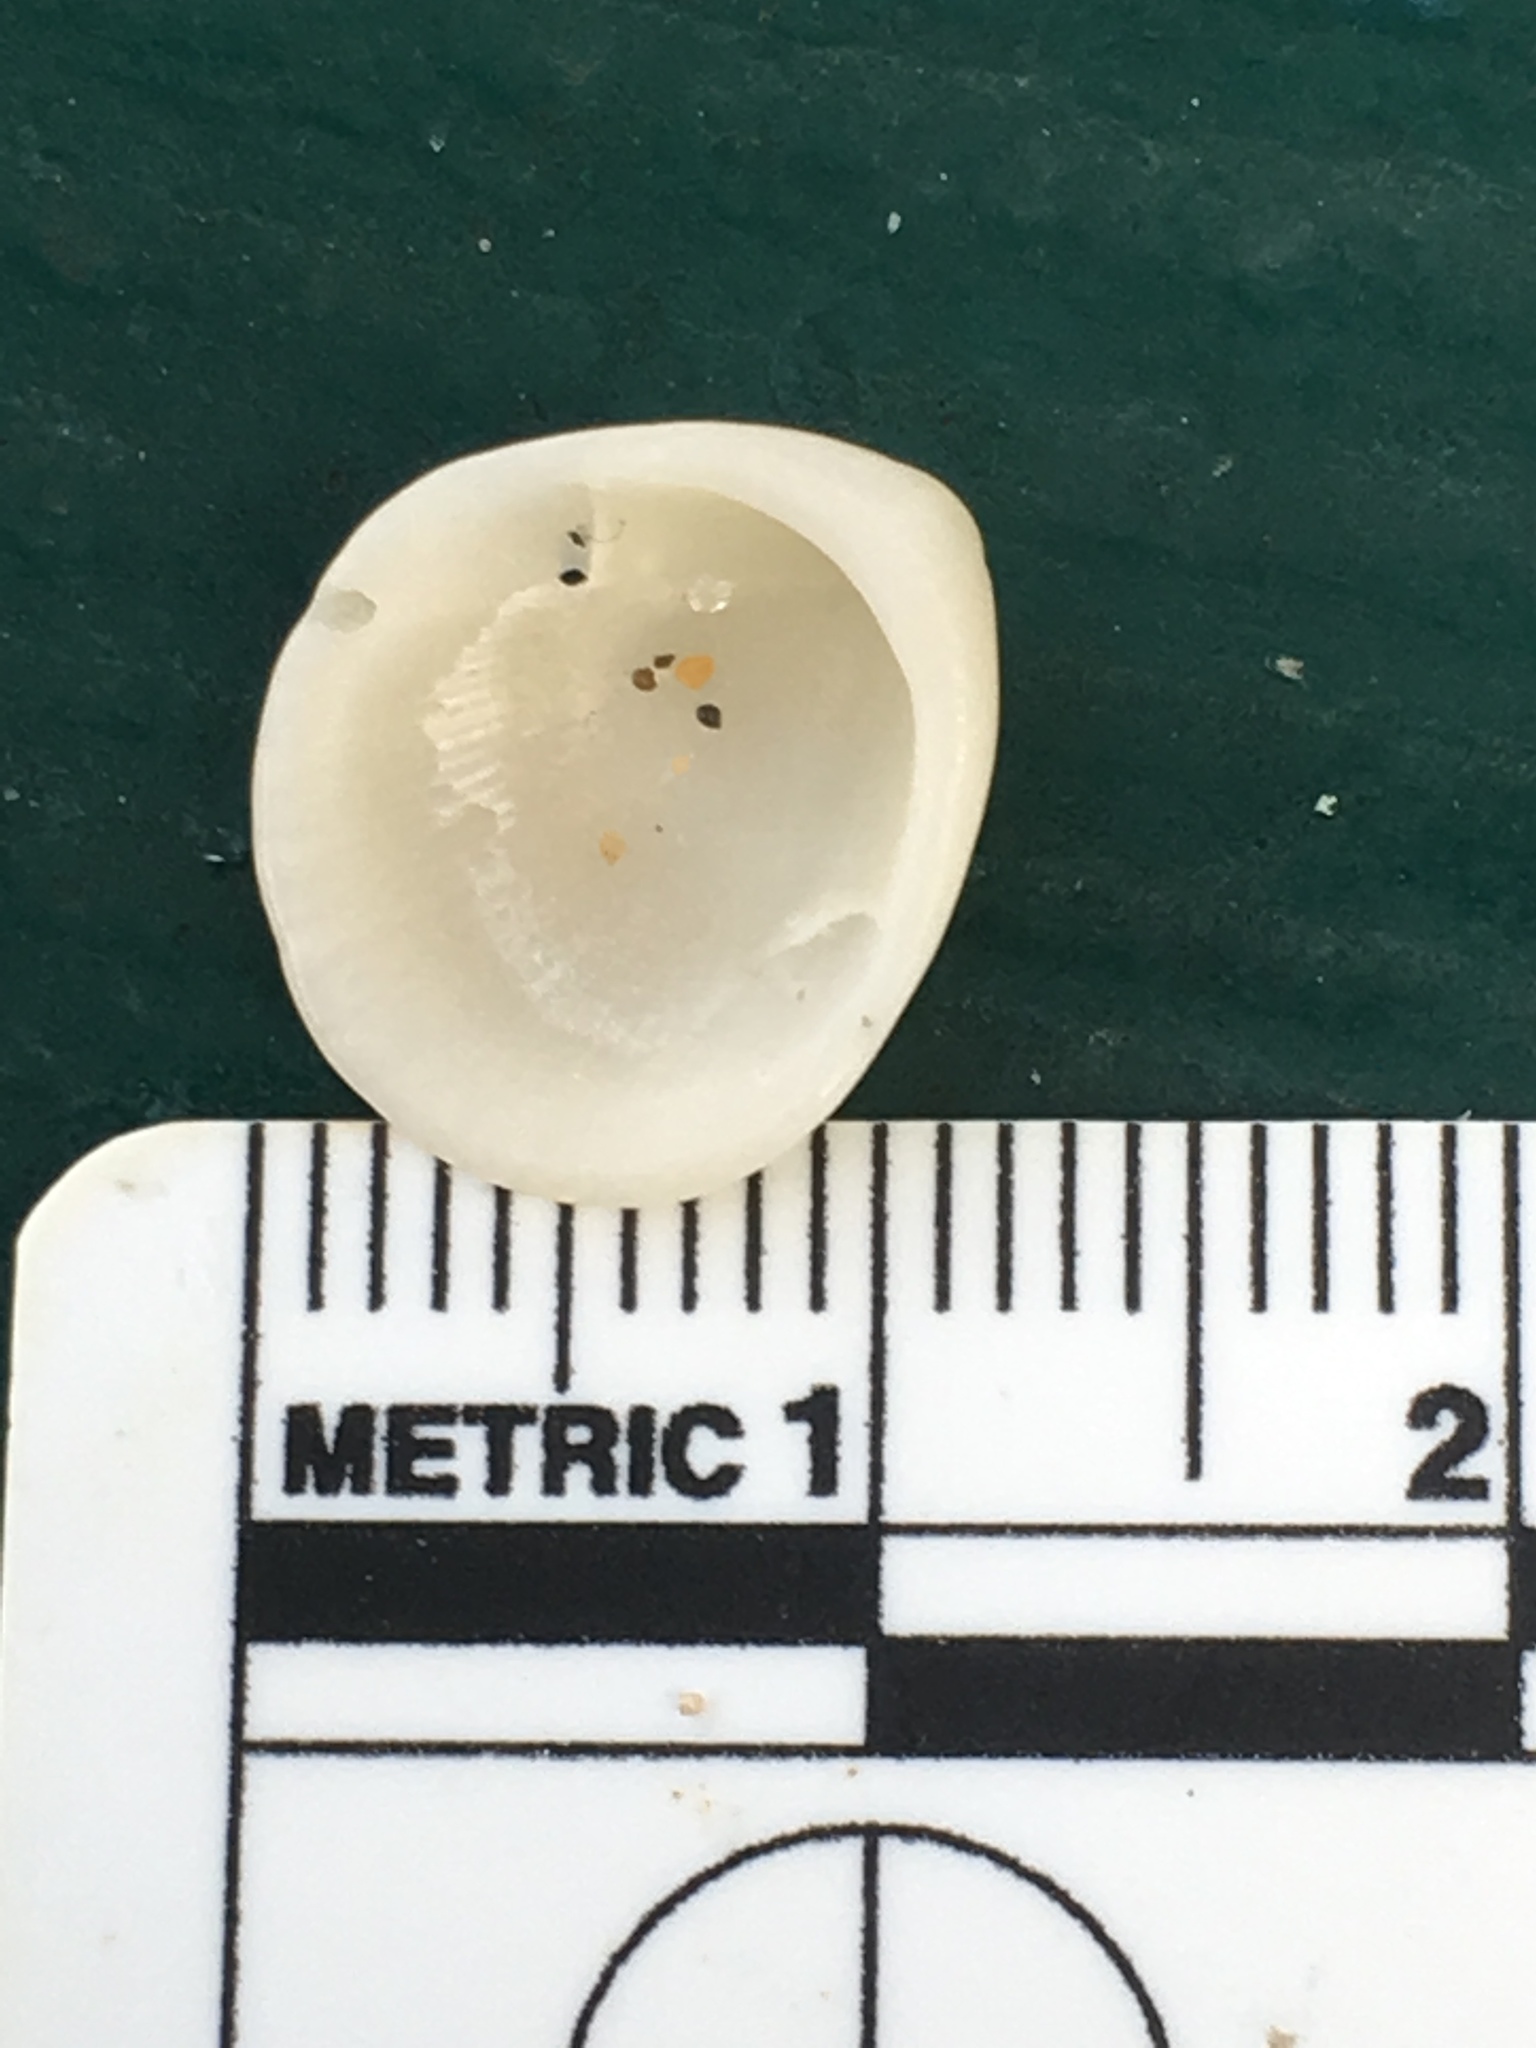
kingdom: Animalia
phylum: Mollusca
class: Bivalvia
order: Arcida
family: Glycymerididae
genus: Tucetona
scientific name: Tucetona pectinata
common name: Comb bittersweet
